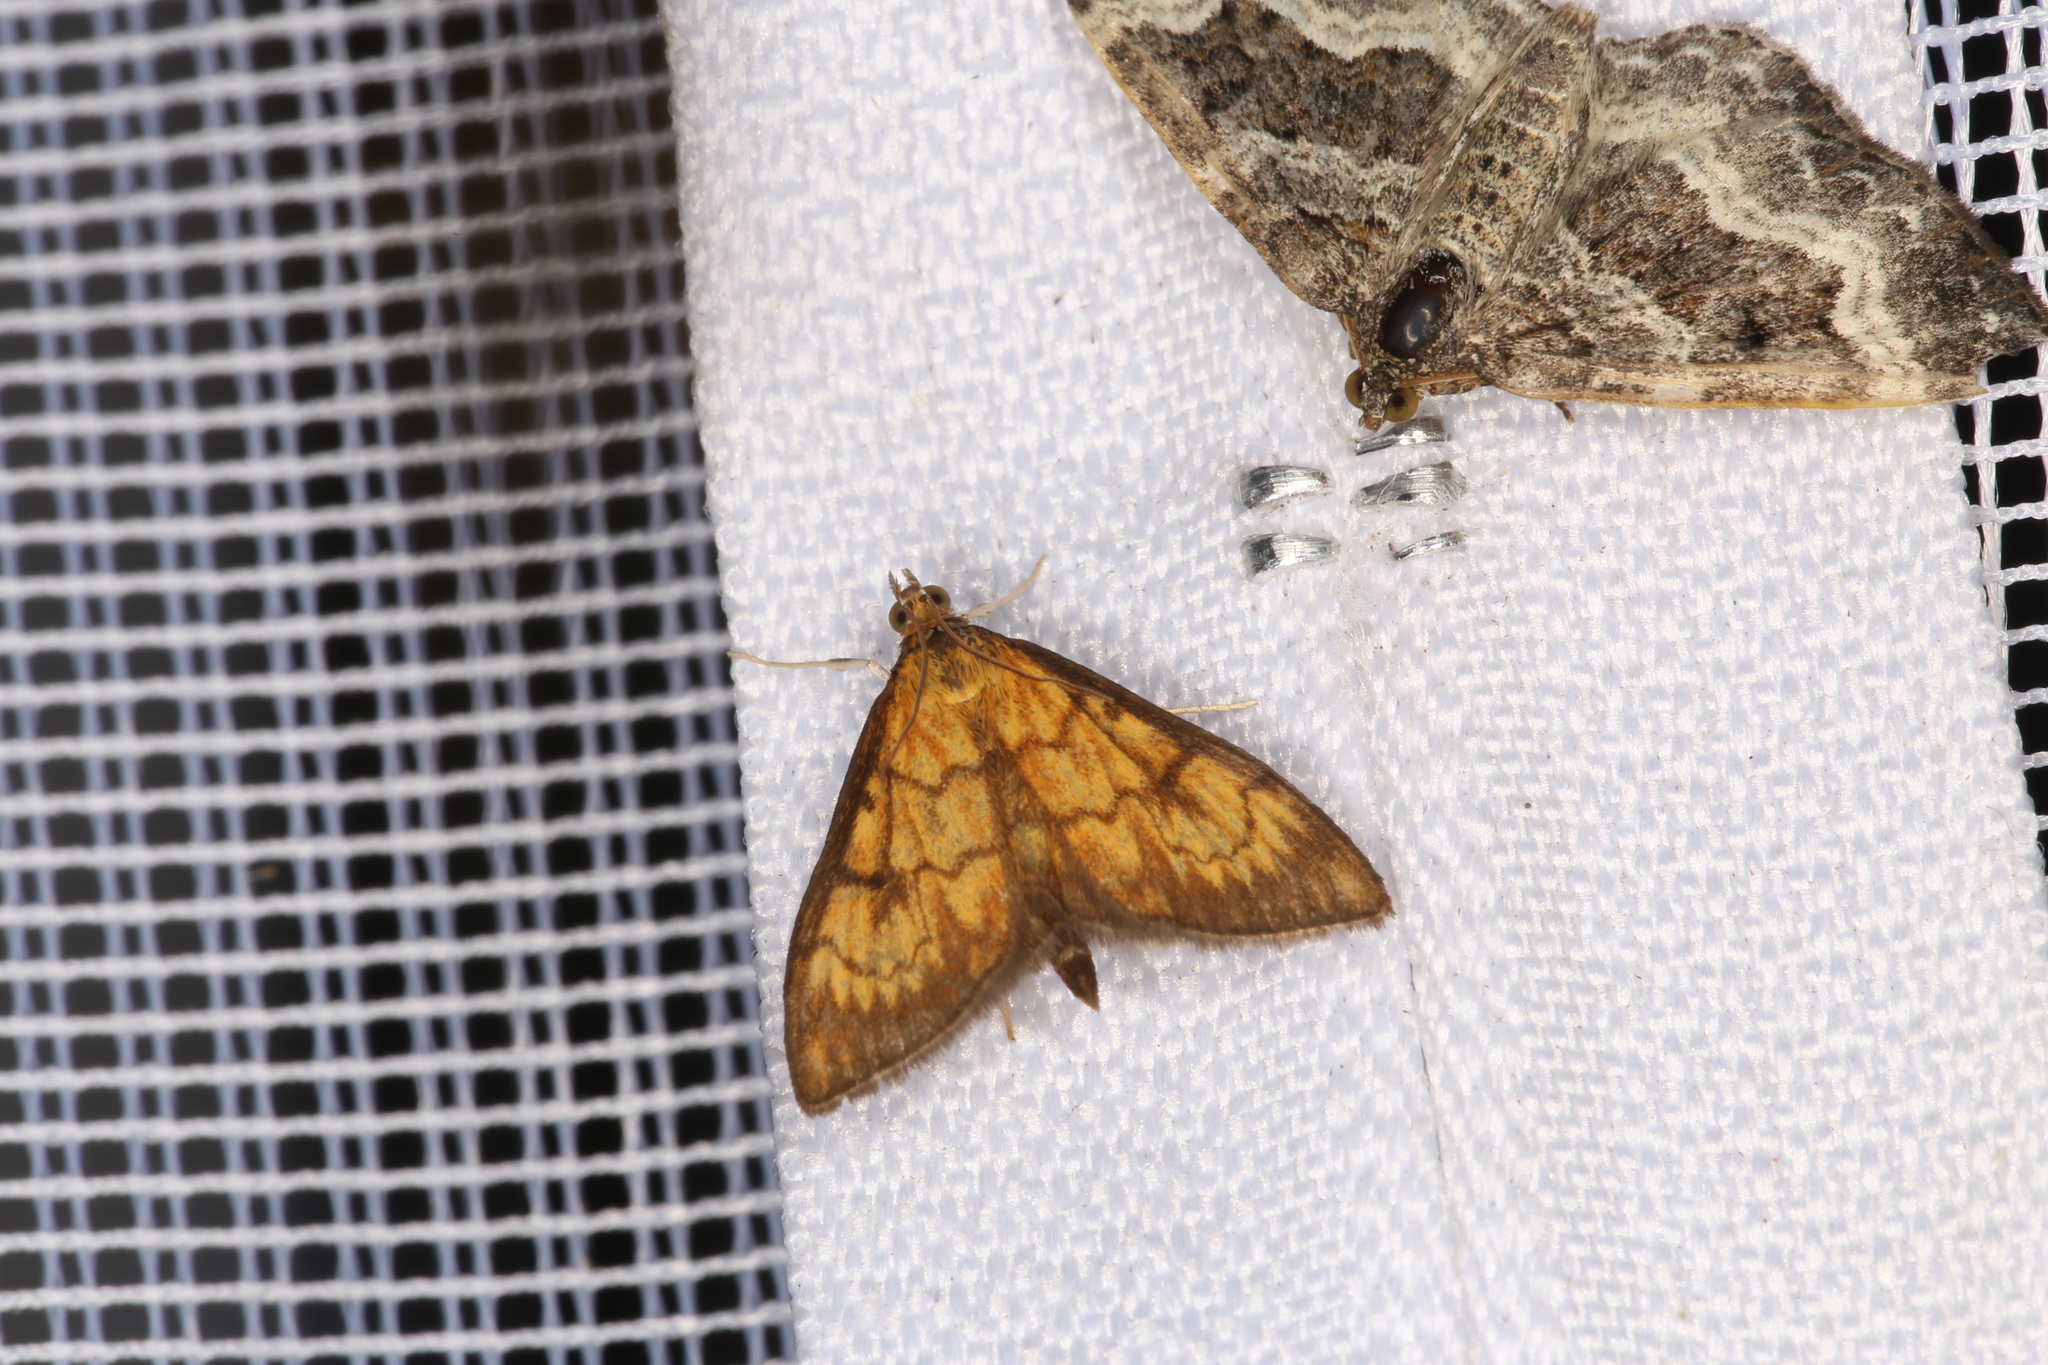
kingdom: Animalia
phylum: Arthropoda
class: Insecta
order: Lepidoptera
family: Crambidae
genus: Ecpyrrhorrhoe
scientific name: Ecpyrrhorrhoe rubiginalis
